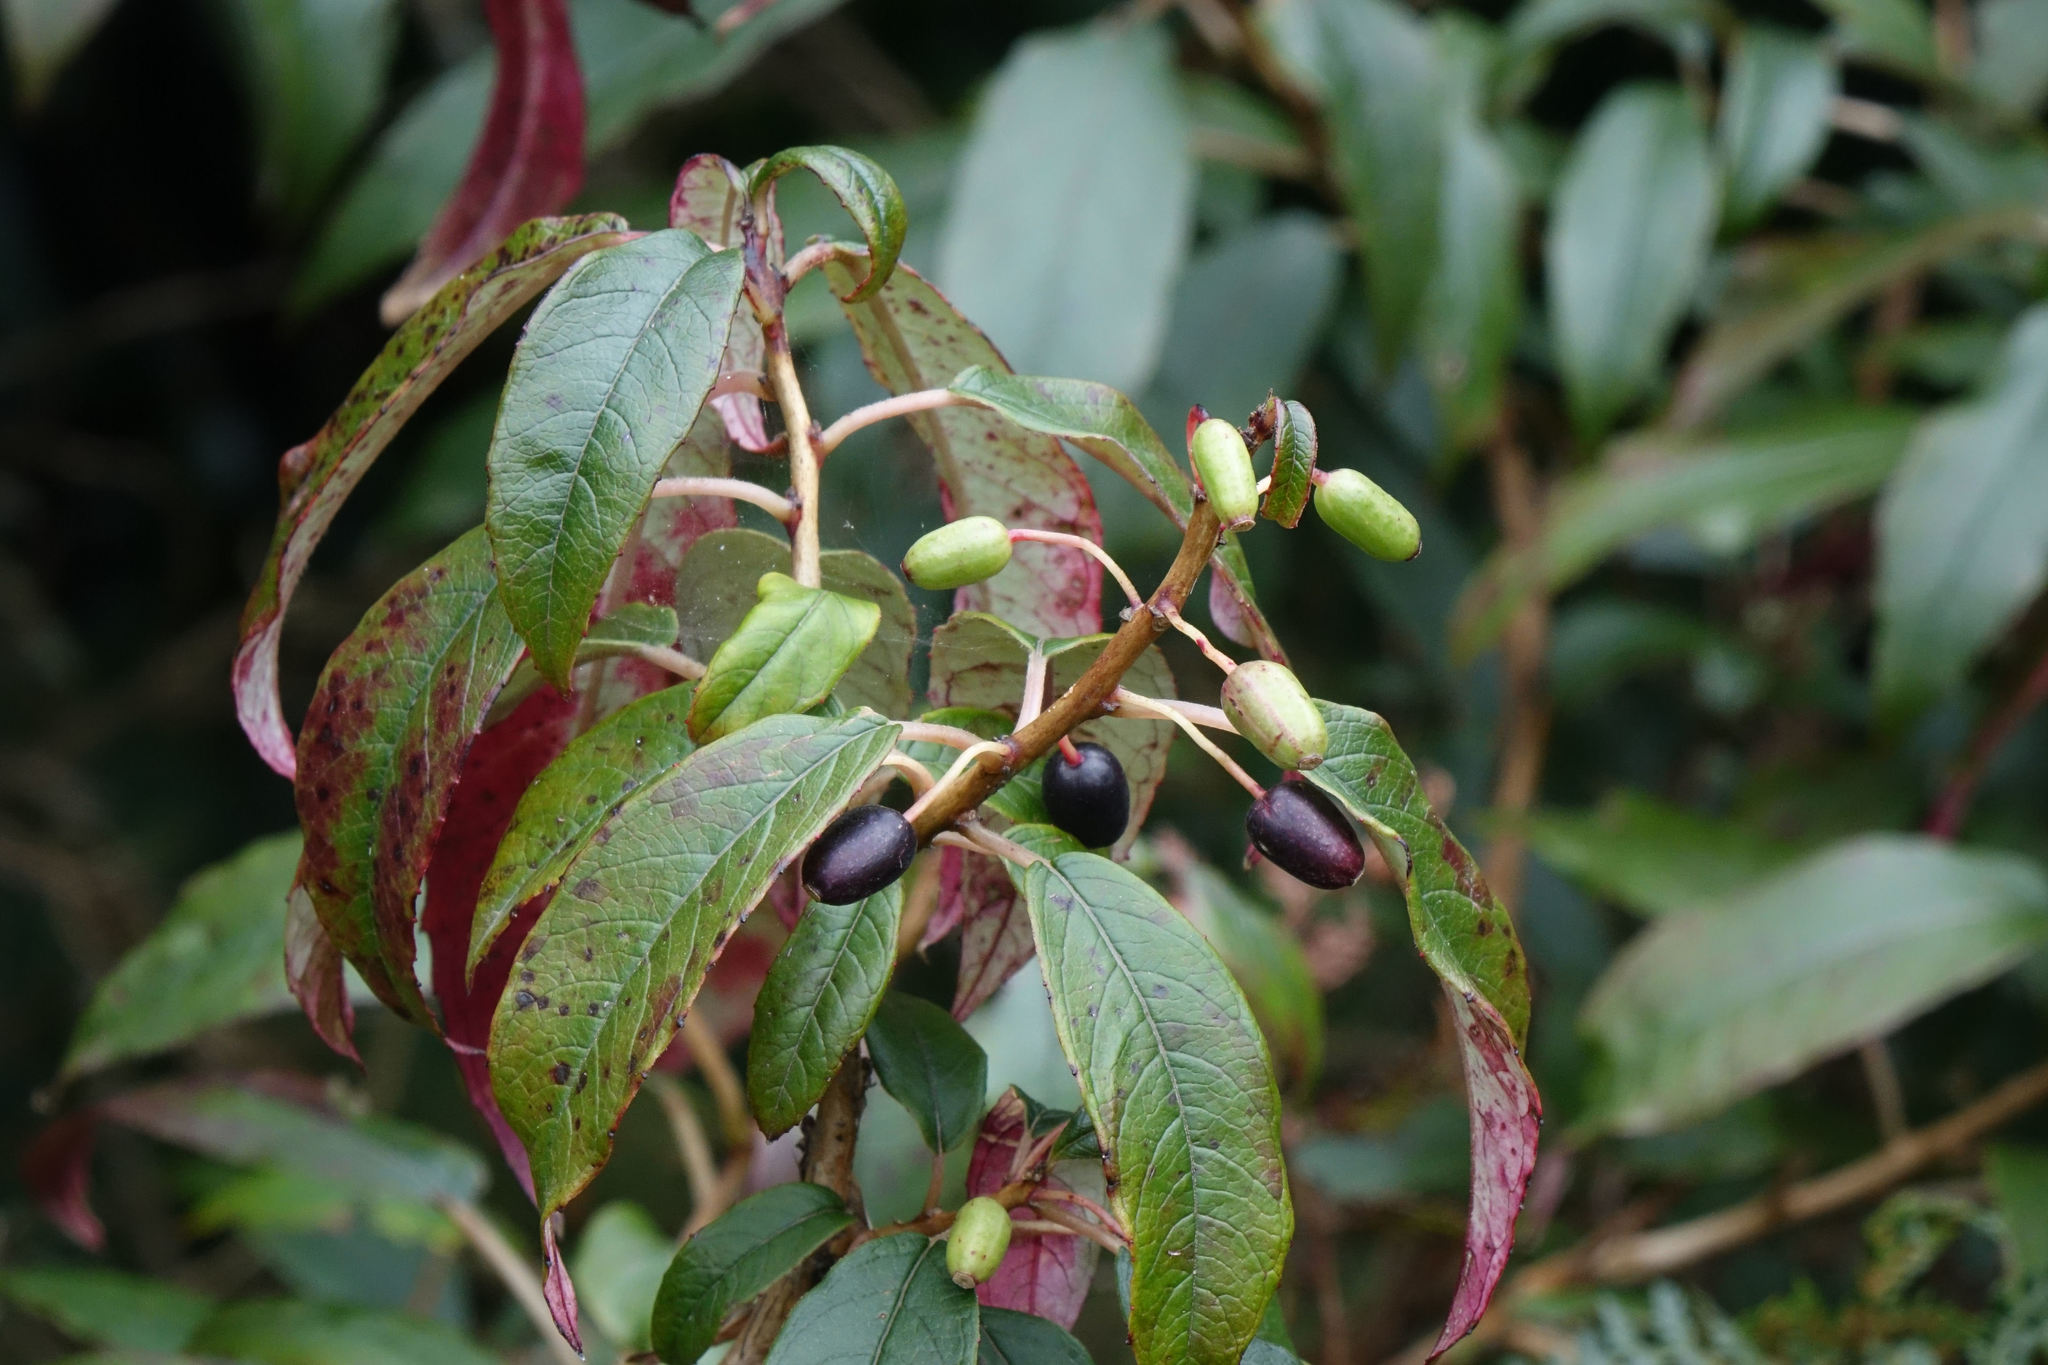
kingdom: Plantae
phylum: Tracheophyta
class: Magnoliopsida
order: Myrtales
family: Onagraceae
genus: Fuchsia
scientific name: Fuchsia excorticata
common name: Tree fuchsia
